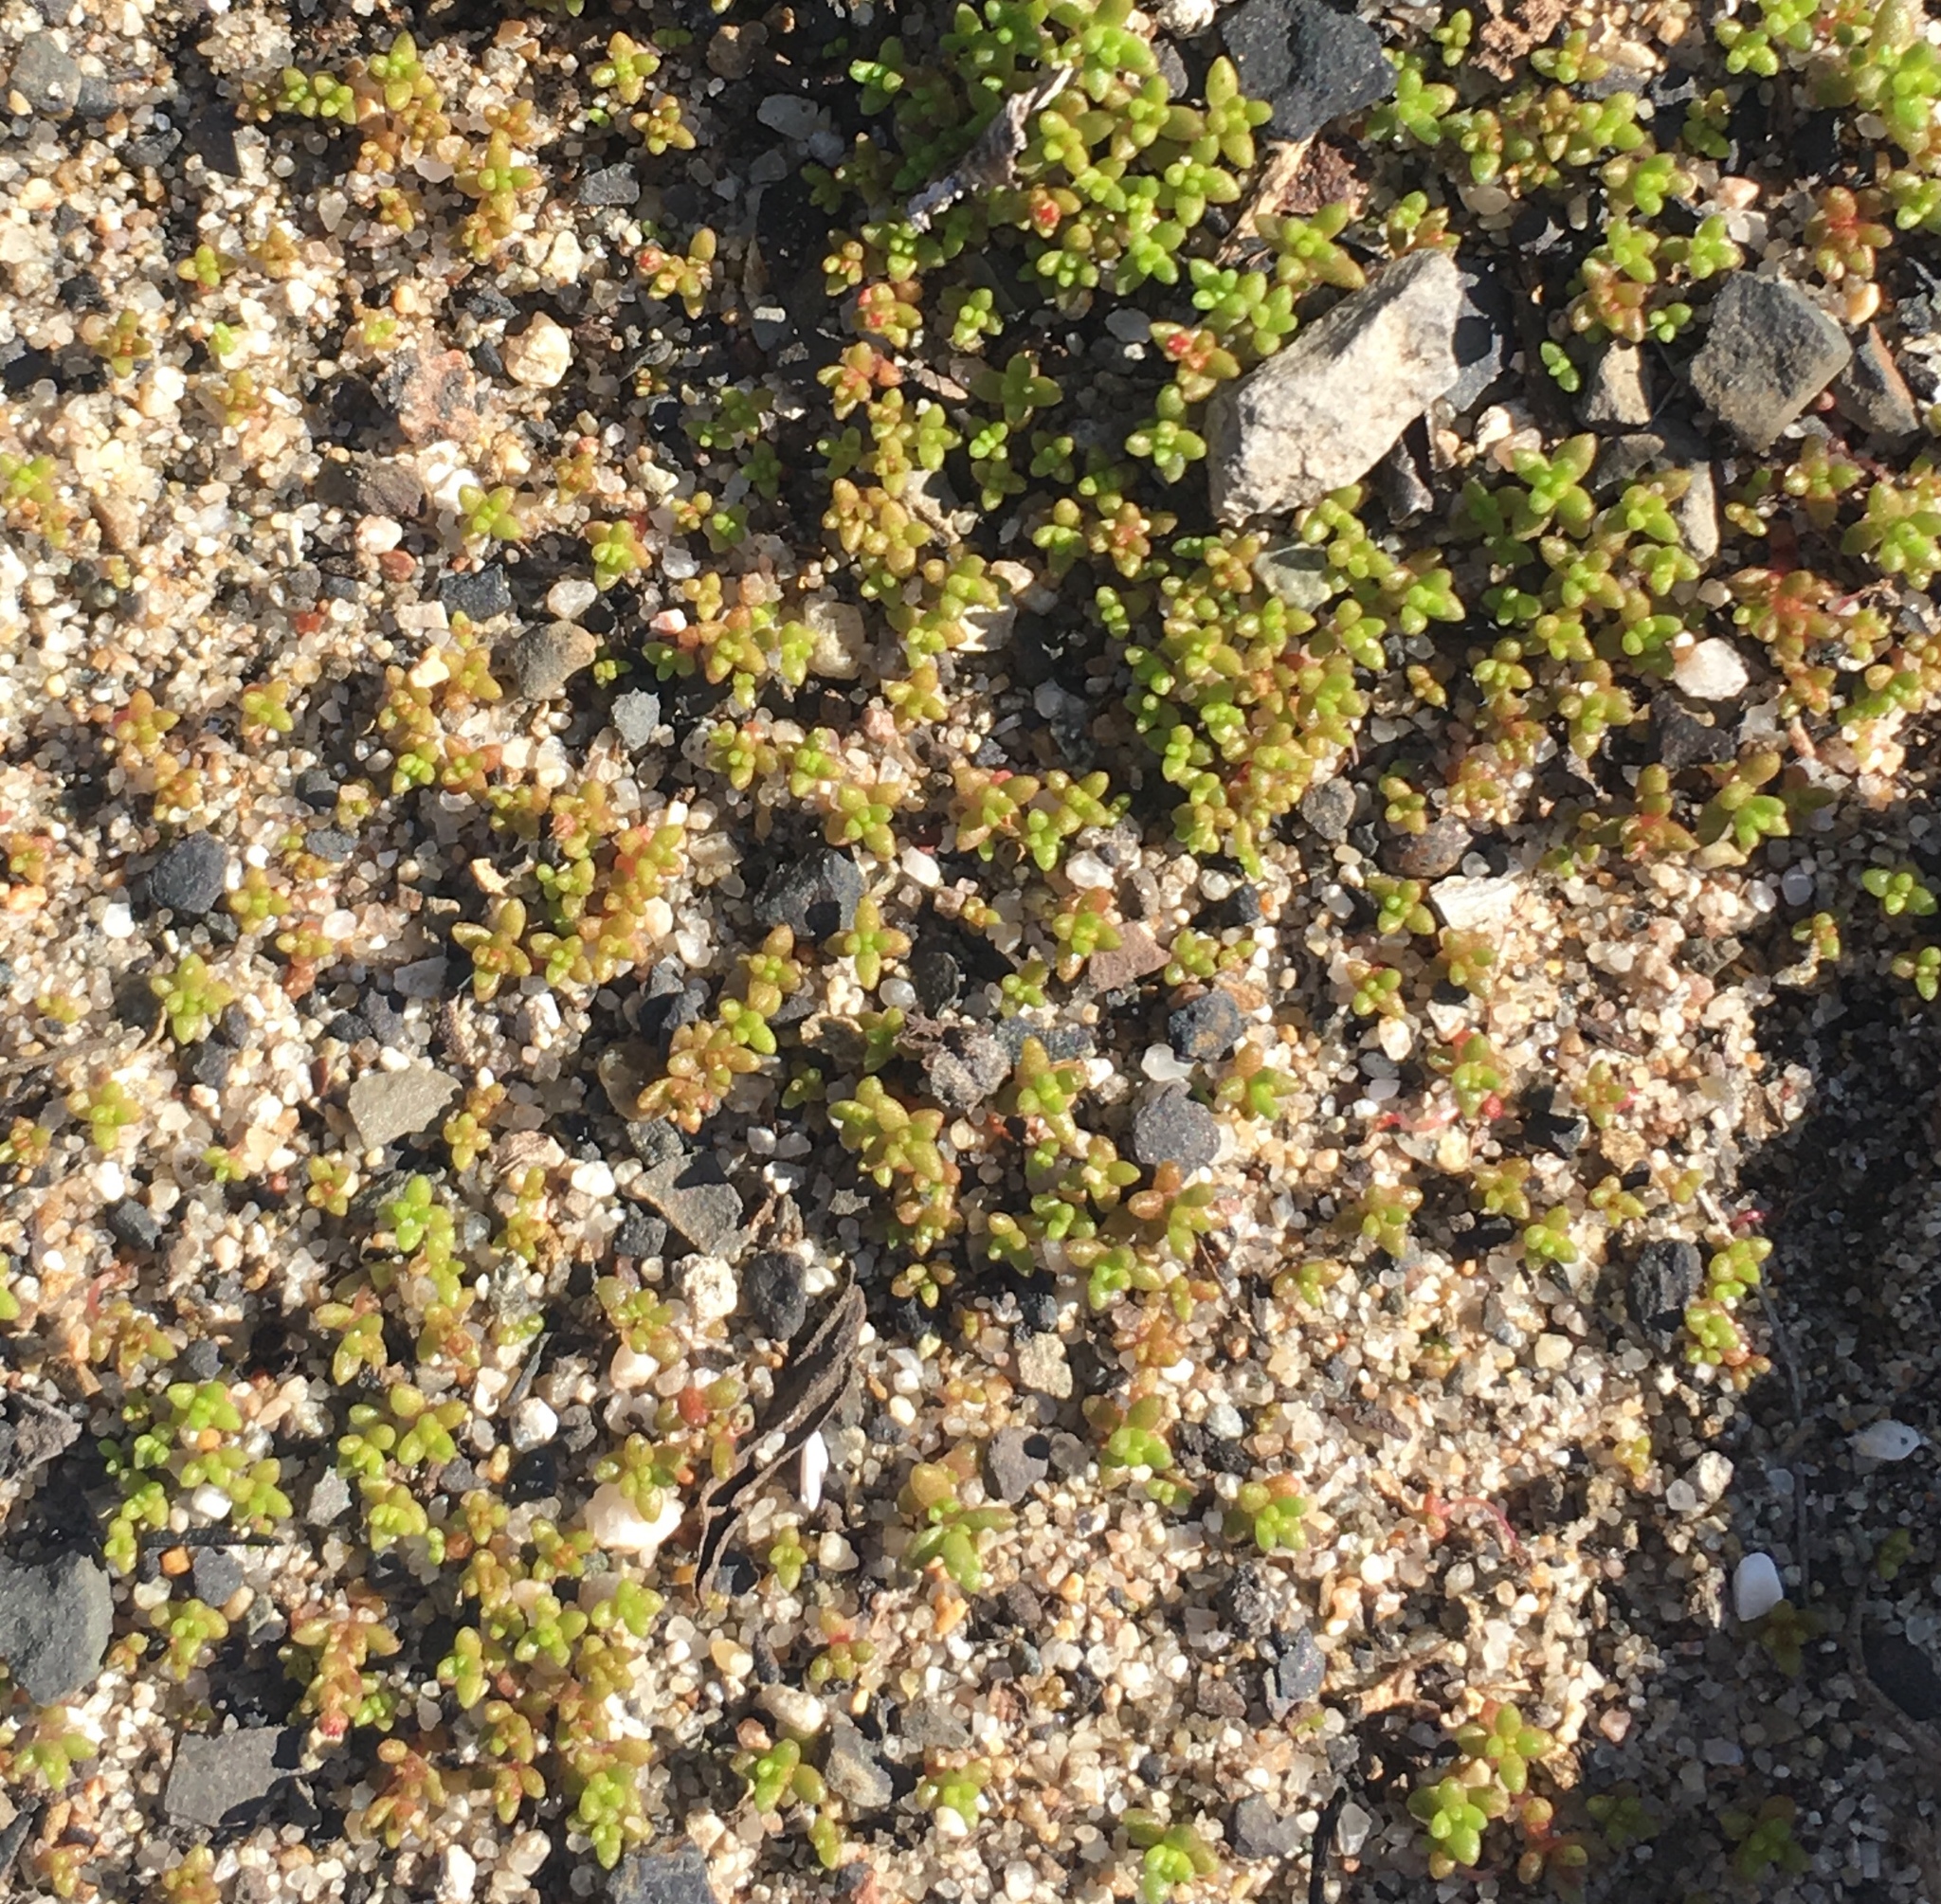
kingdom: Plantae
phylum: Tracheophyta
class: Magnoliopsida
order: Saxifragales
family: Crassulaceae
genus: Crassula
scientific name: Crassula connata
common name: Erect pygmyweed
